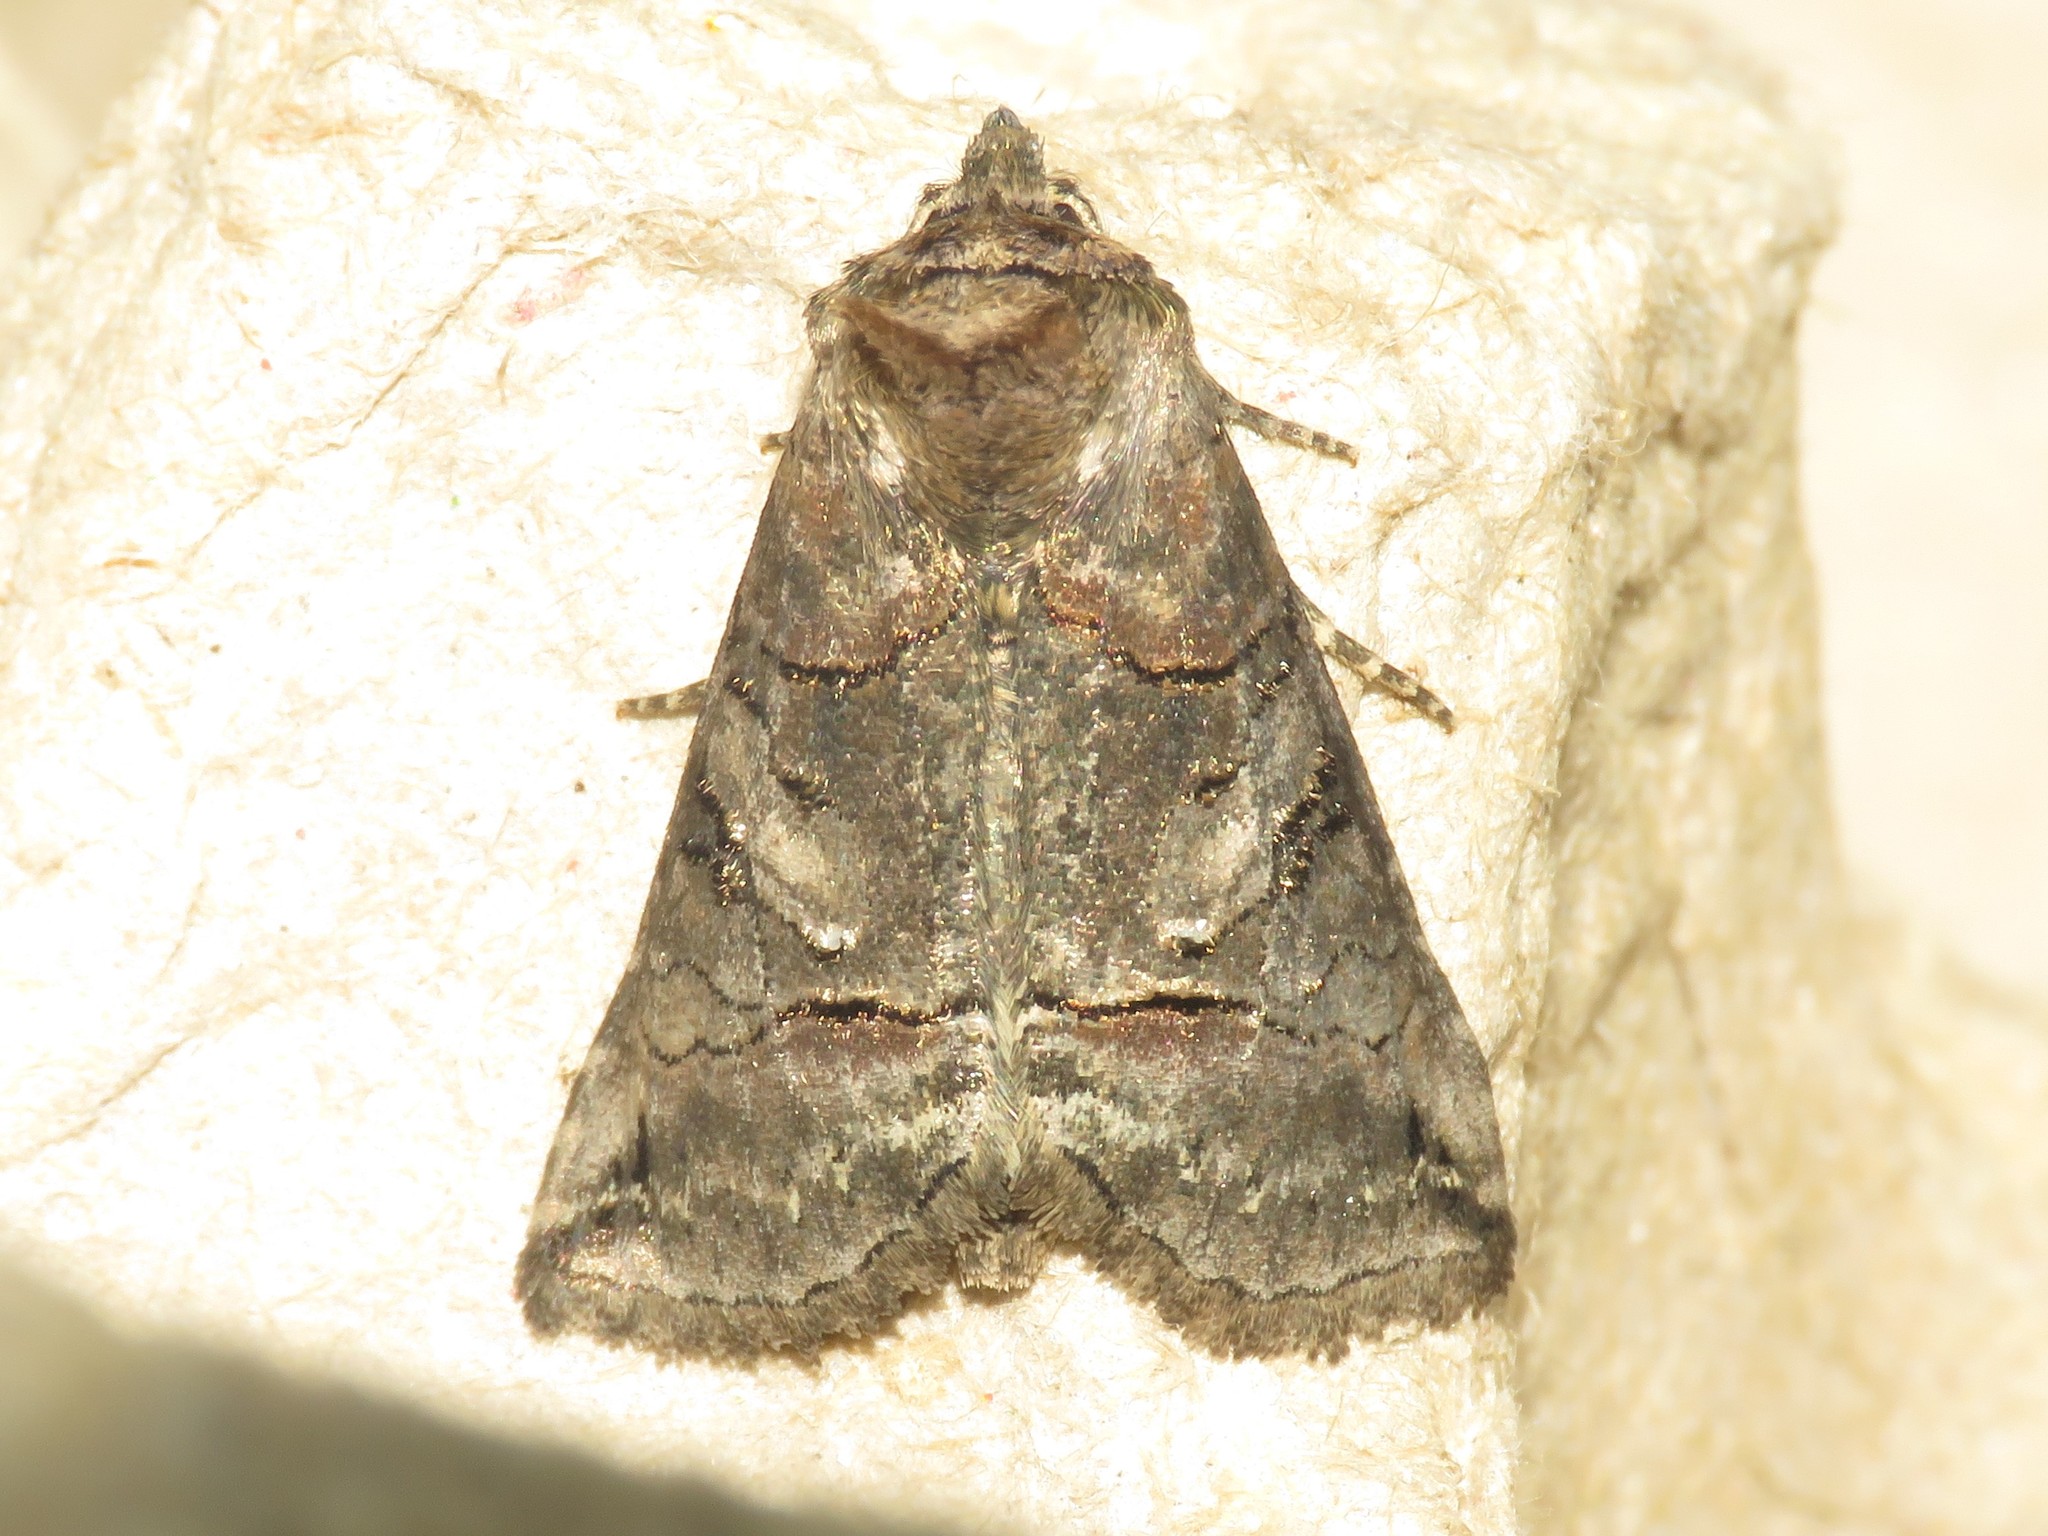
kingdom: Animalia
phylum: Arthropoda
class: Insecta
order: Lepidoptera
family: Noctuidae
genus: Abrostola
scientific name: Abrostola urentis
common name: Spectacled nettle moth
